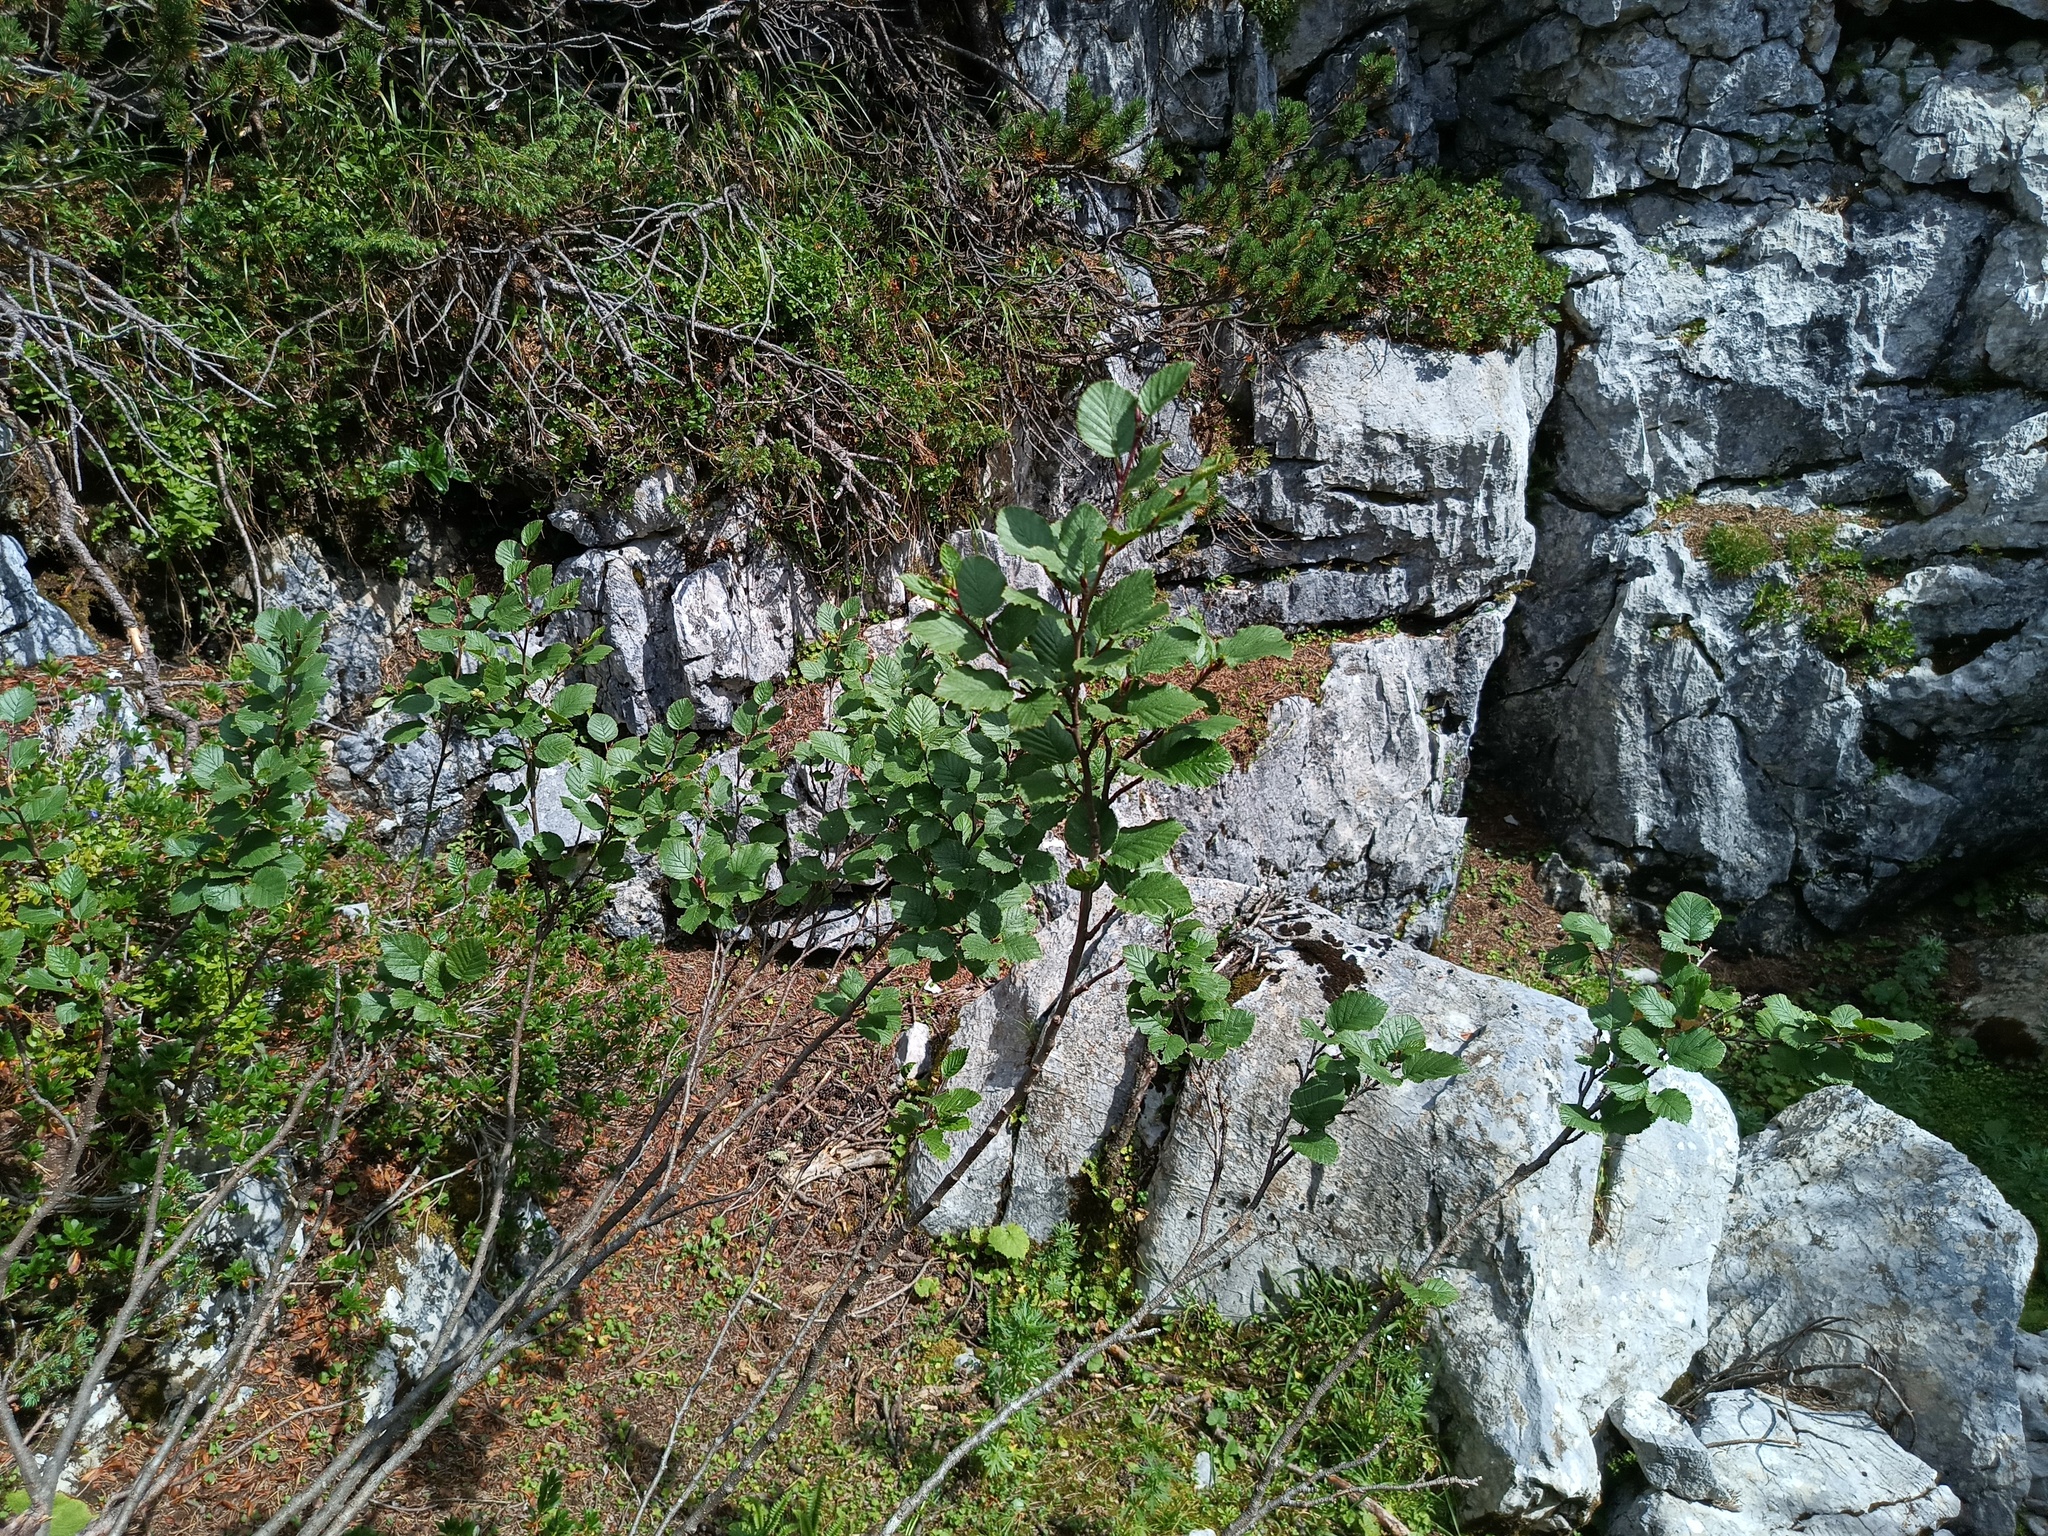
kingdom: Plantae
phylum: Tracheophyta
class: Magnoliopsida
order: Fagales
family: Betulaceae
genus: Alnus
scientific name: Alnus alnobetula
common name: Green alder
